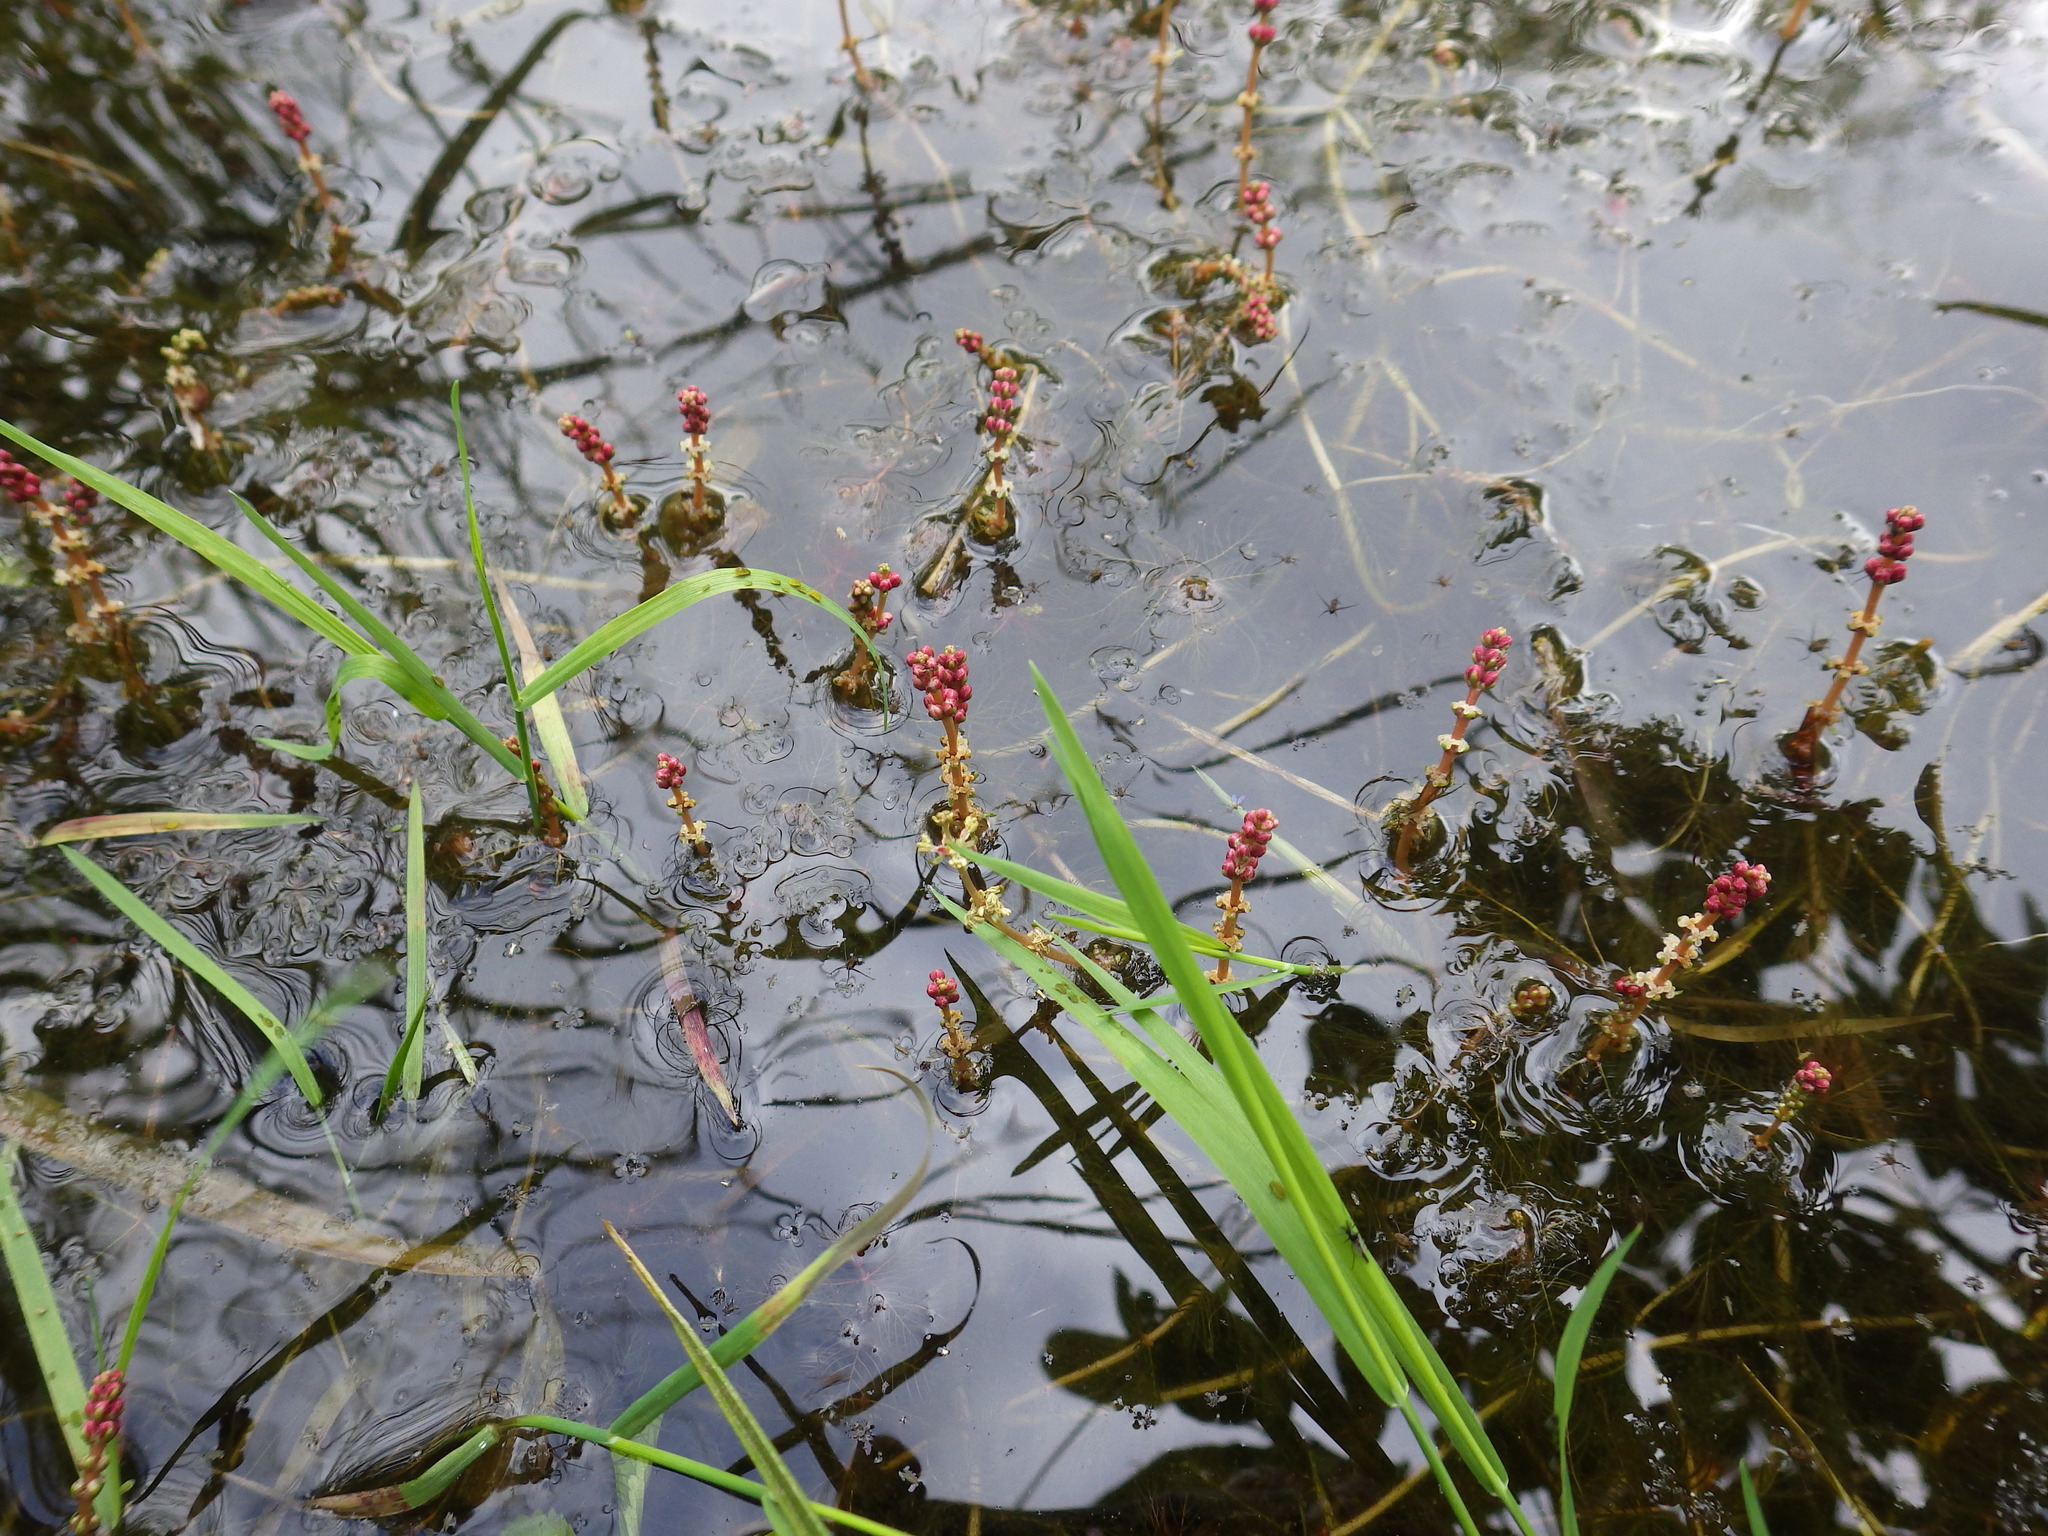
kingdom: Plantae
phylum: Tracheophyta
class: Magnoliopsida
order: Saxifragales
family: Haloragaceae
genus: Myriophyllum
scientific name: Myriophyllum spicatum
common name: Spiked water-milfoil
